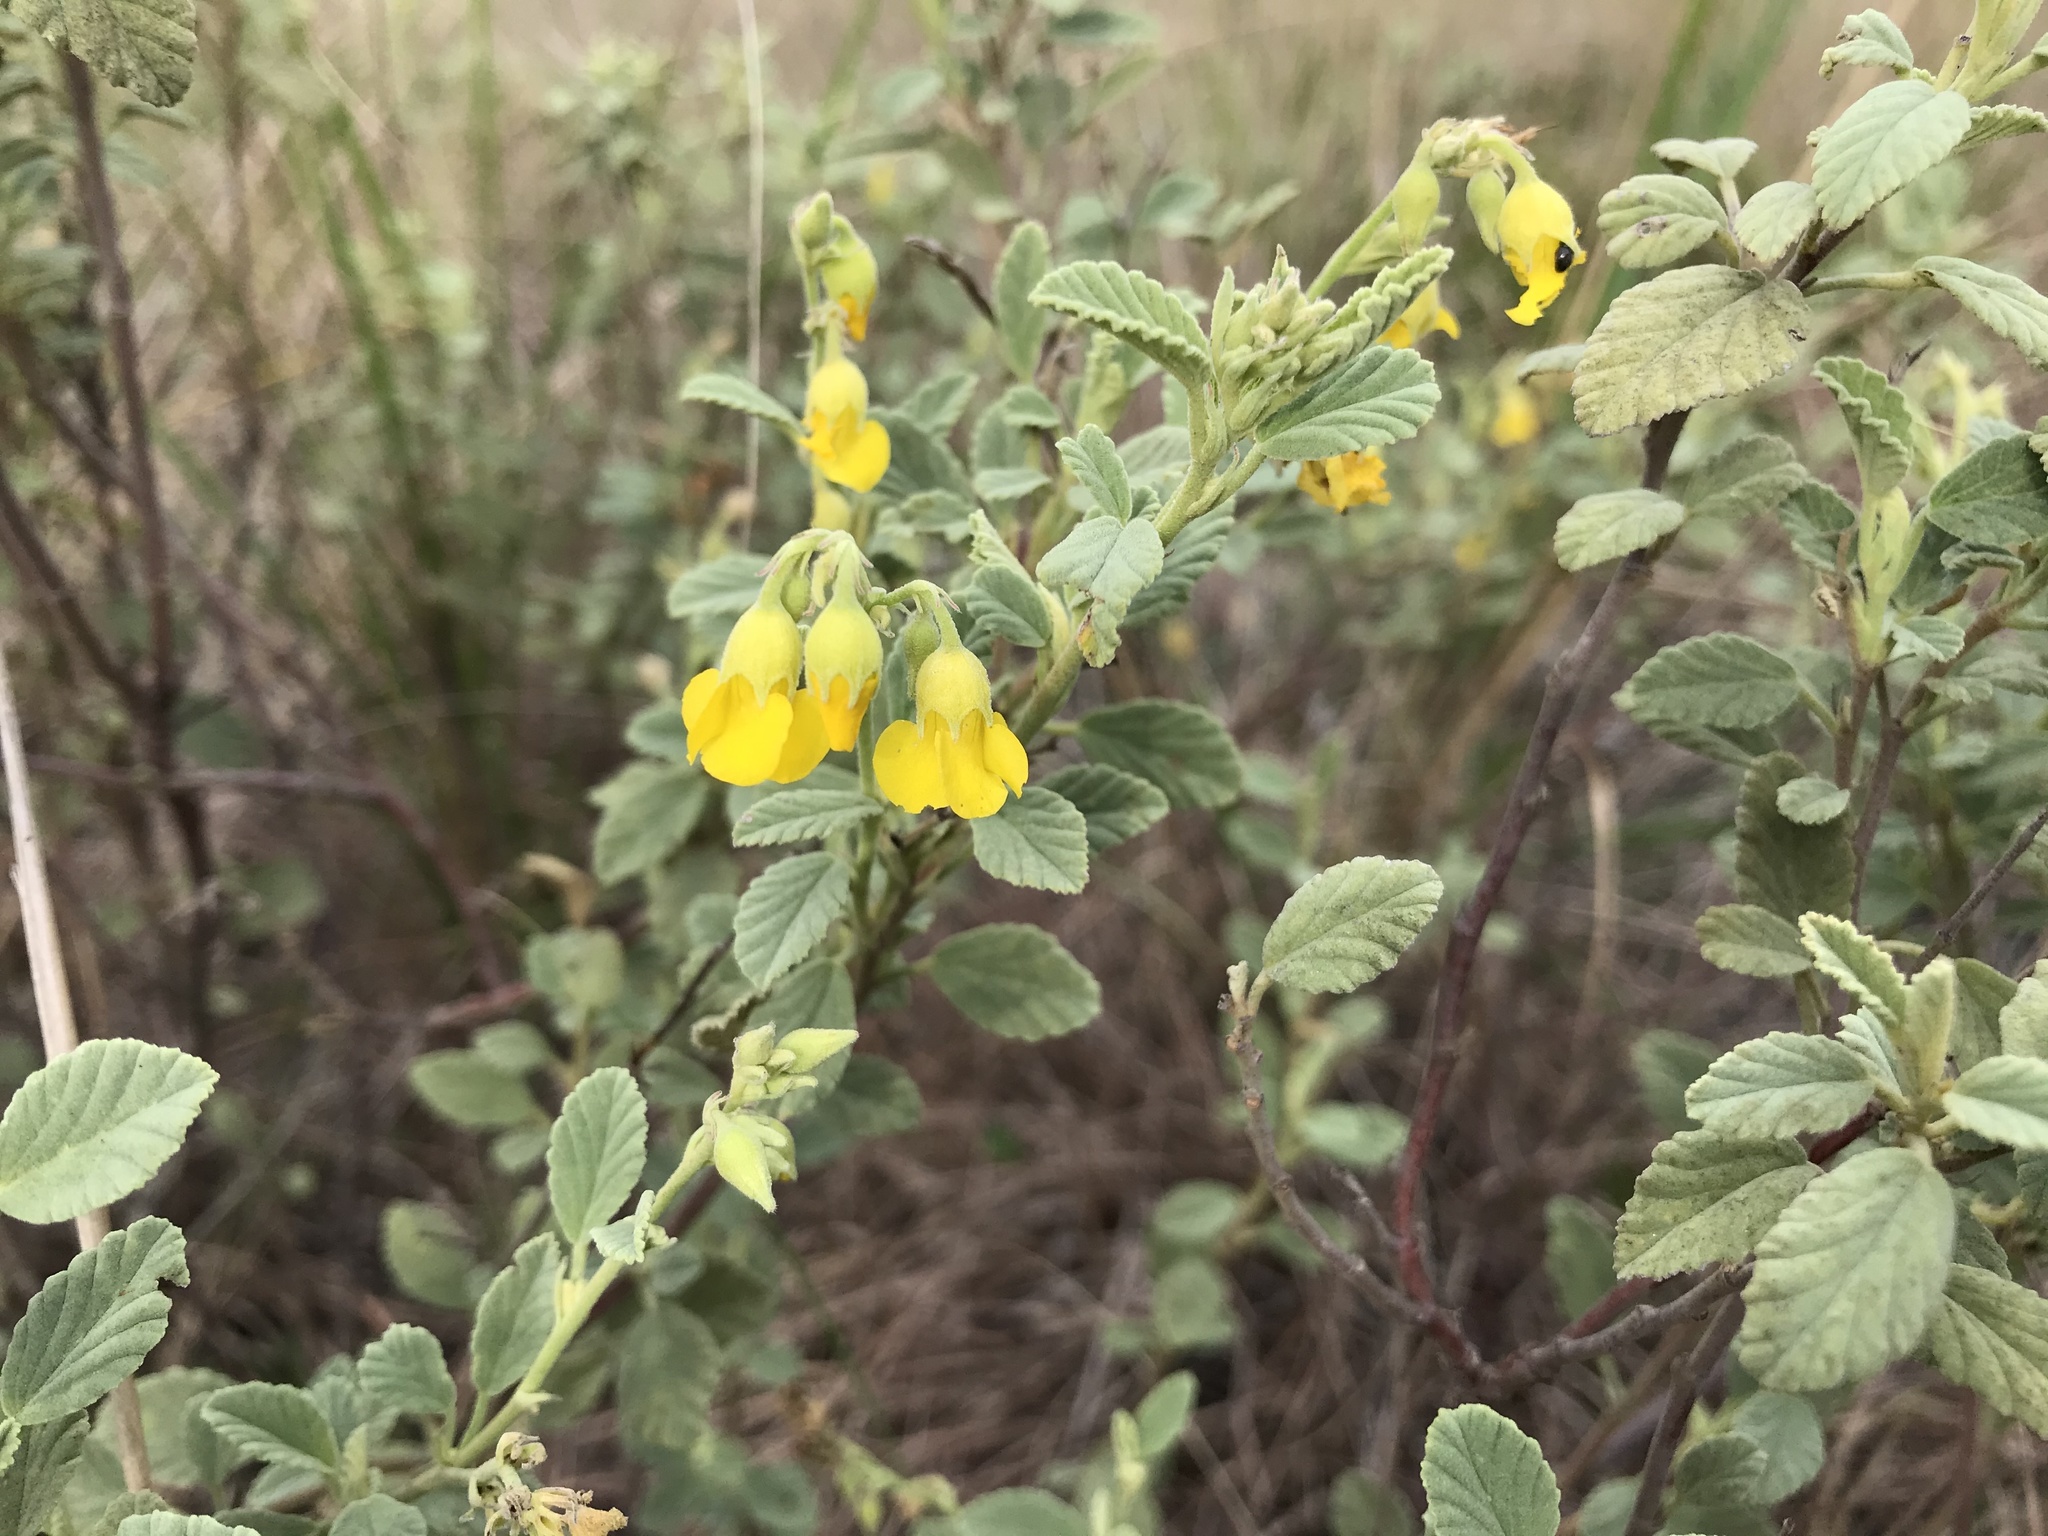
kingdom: Plantae
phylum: Tracheophyta
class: Magnoliopsida
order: Malvales
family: Malvaceae
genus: Hermannia
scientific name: Hermannia althaeifolia
